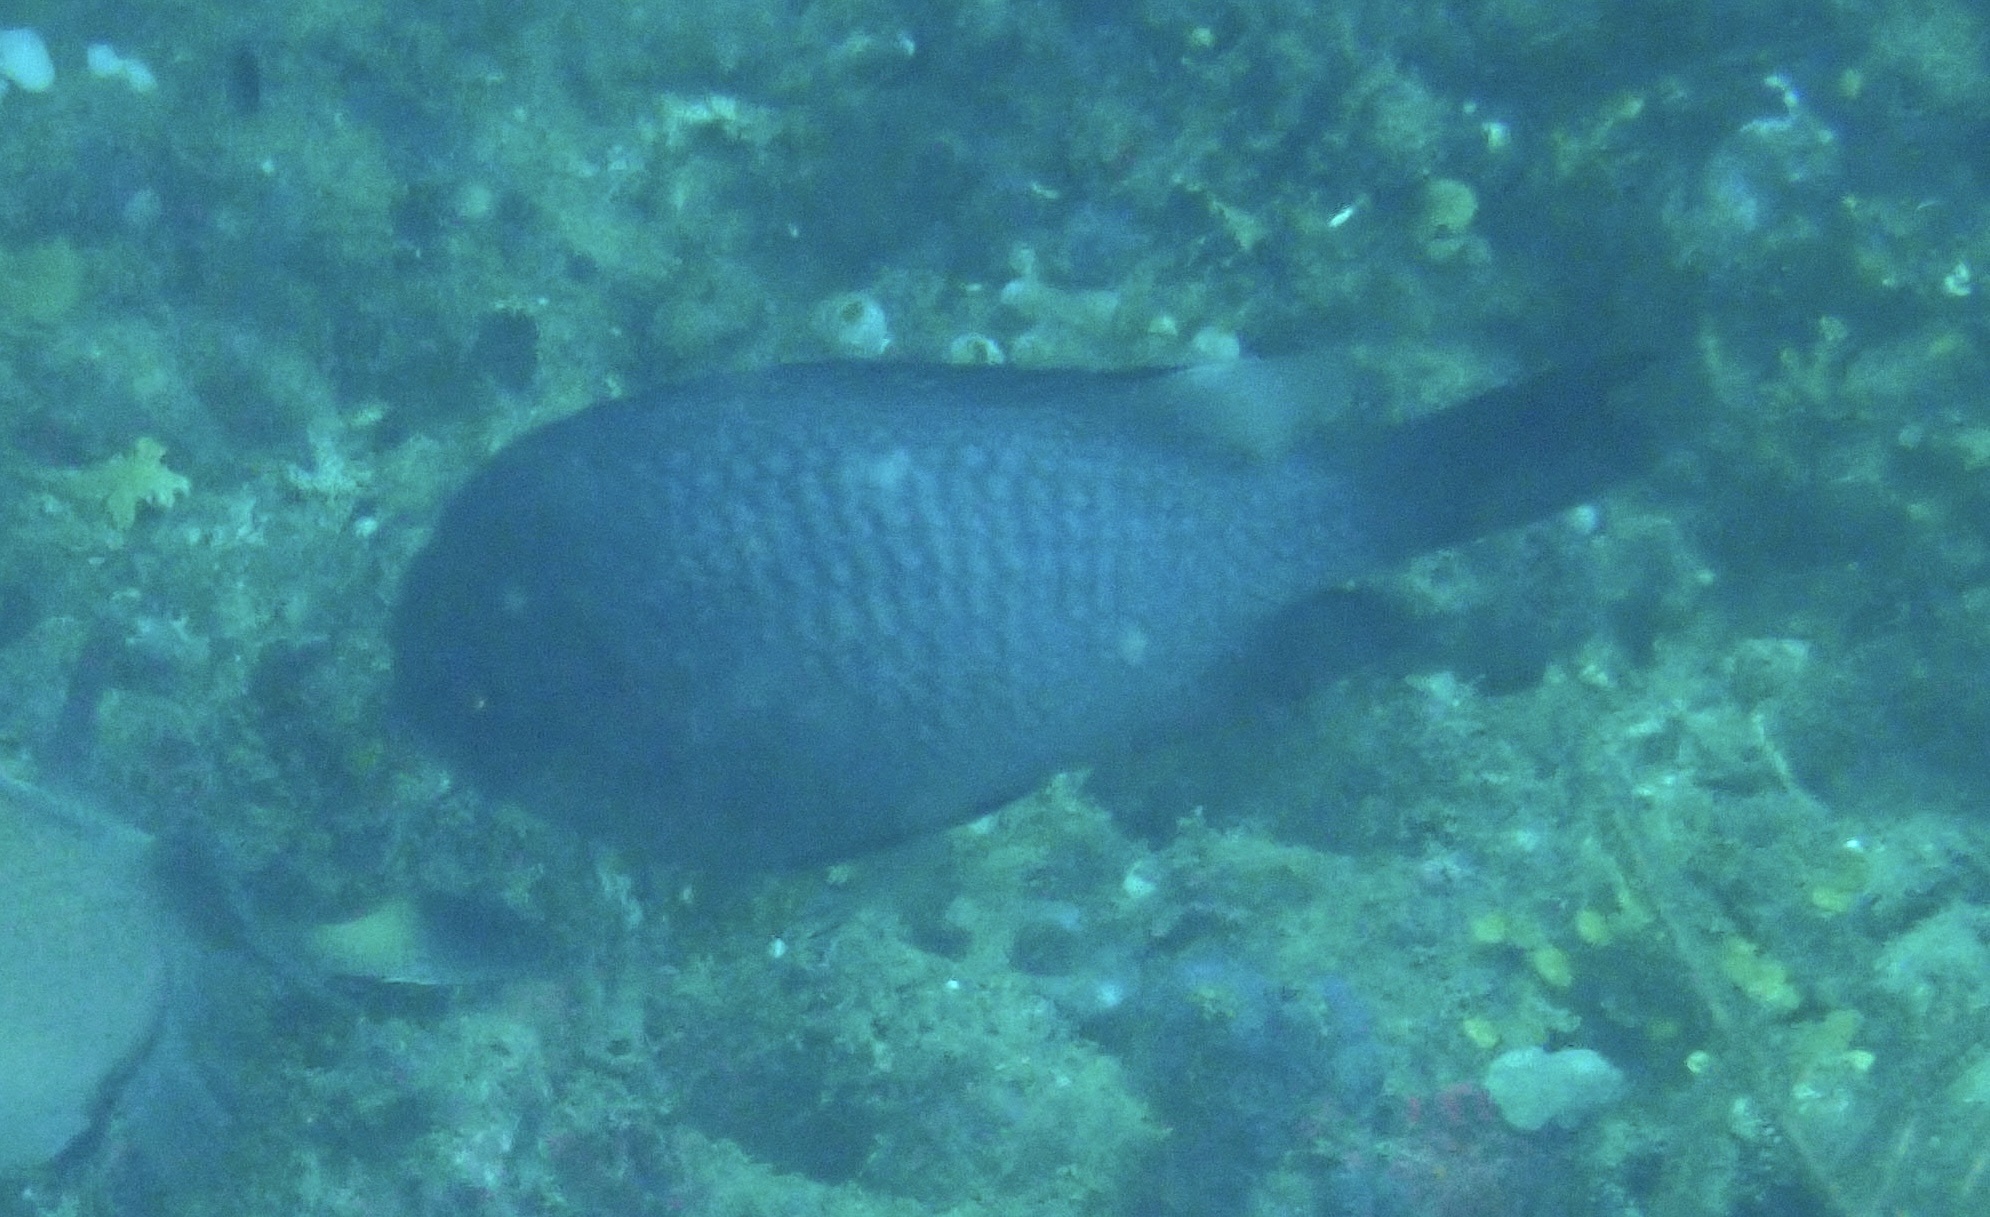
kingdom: Animalia
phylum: Chordata
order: Perciformes
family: Pomacentridae
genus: Dascyllus
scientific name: Dascyllus trimaculatus
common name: Threespot dascyllus
